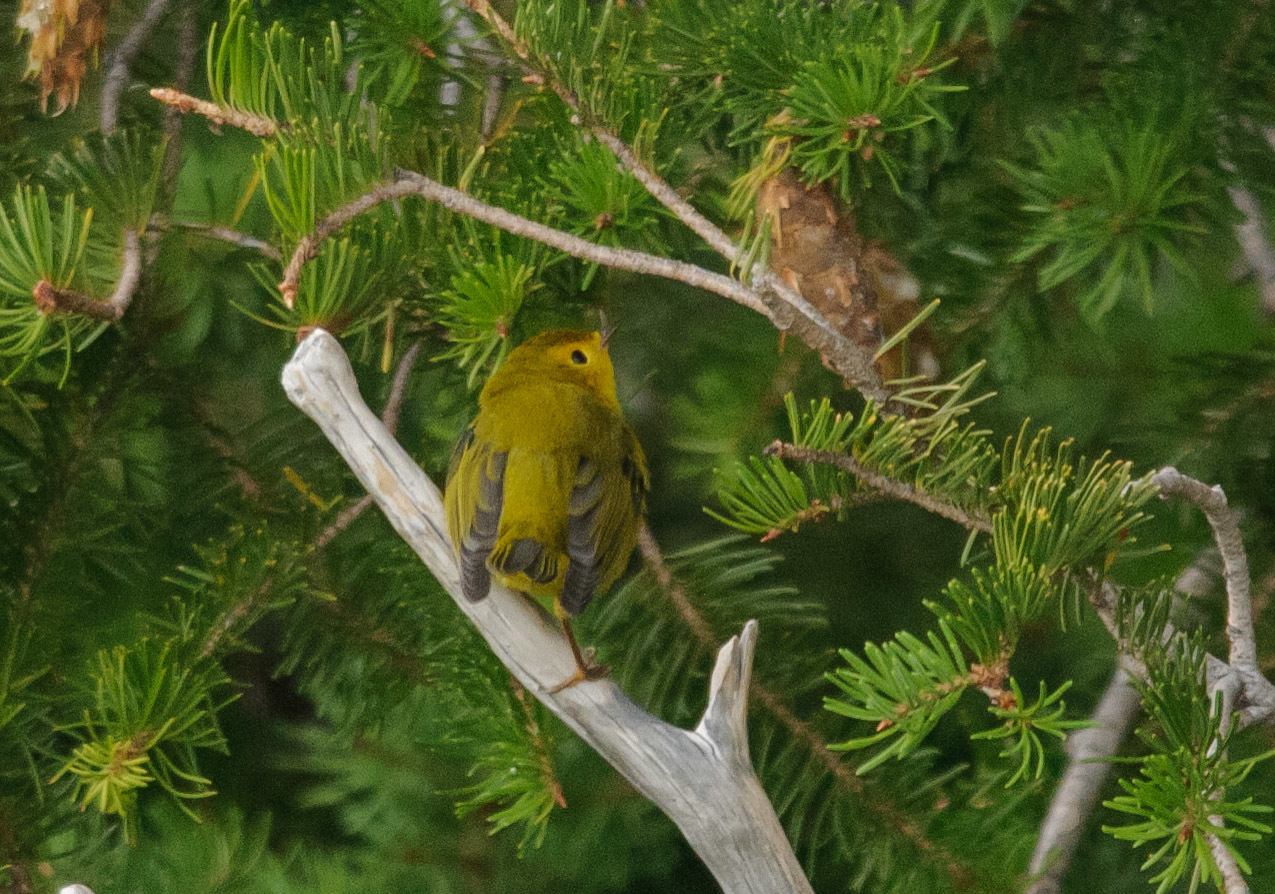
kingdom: Animalia
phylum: Chordata
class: Aves
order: Passeriformes
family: Parulidae
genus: Cardellina
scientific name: Cardellina pusilla
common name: Wilson's warbler
